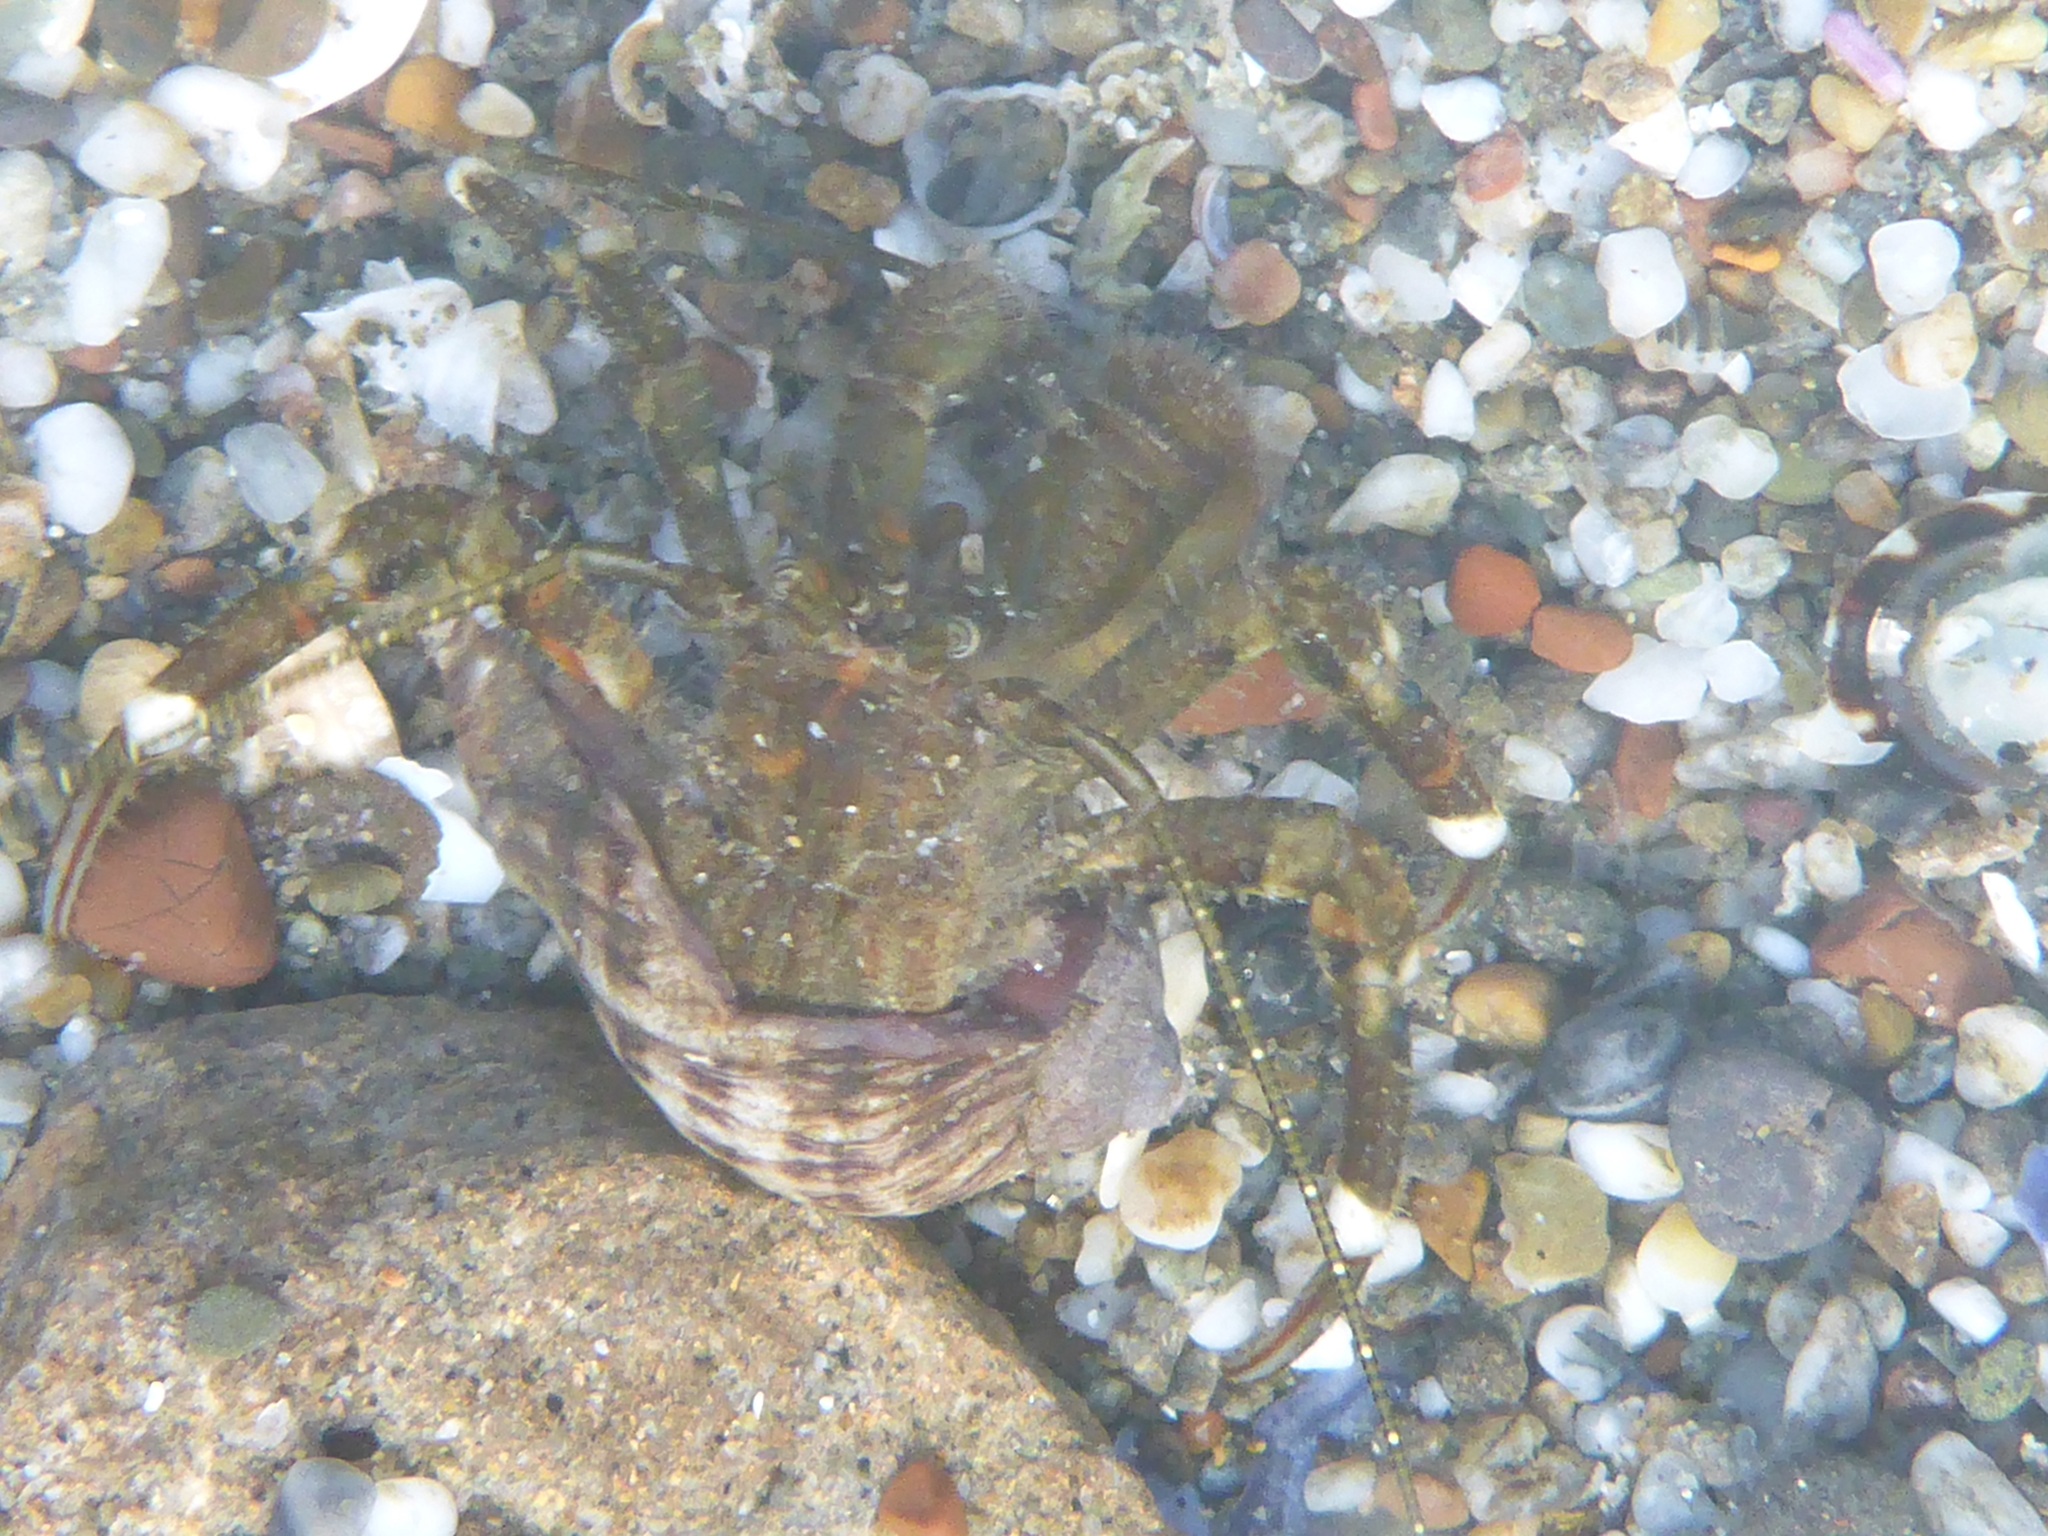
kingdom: Animalia
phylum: Arthropoda
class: Malacostraca
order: Decapoda
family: Paguridae
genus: Pagurus
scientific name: Pagurus hirsutiusculus
